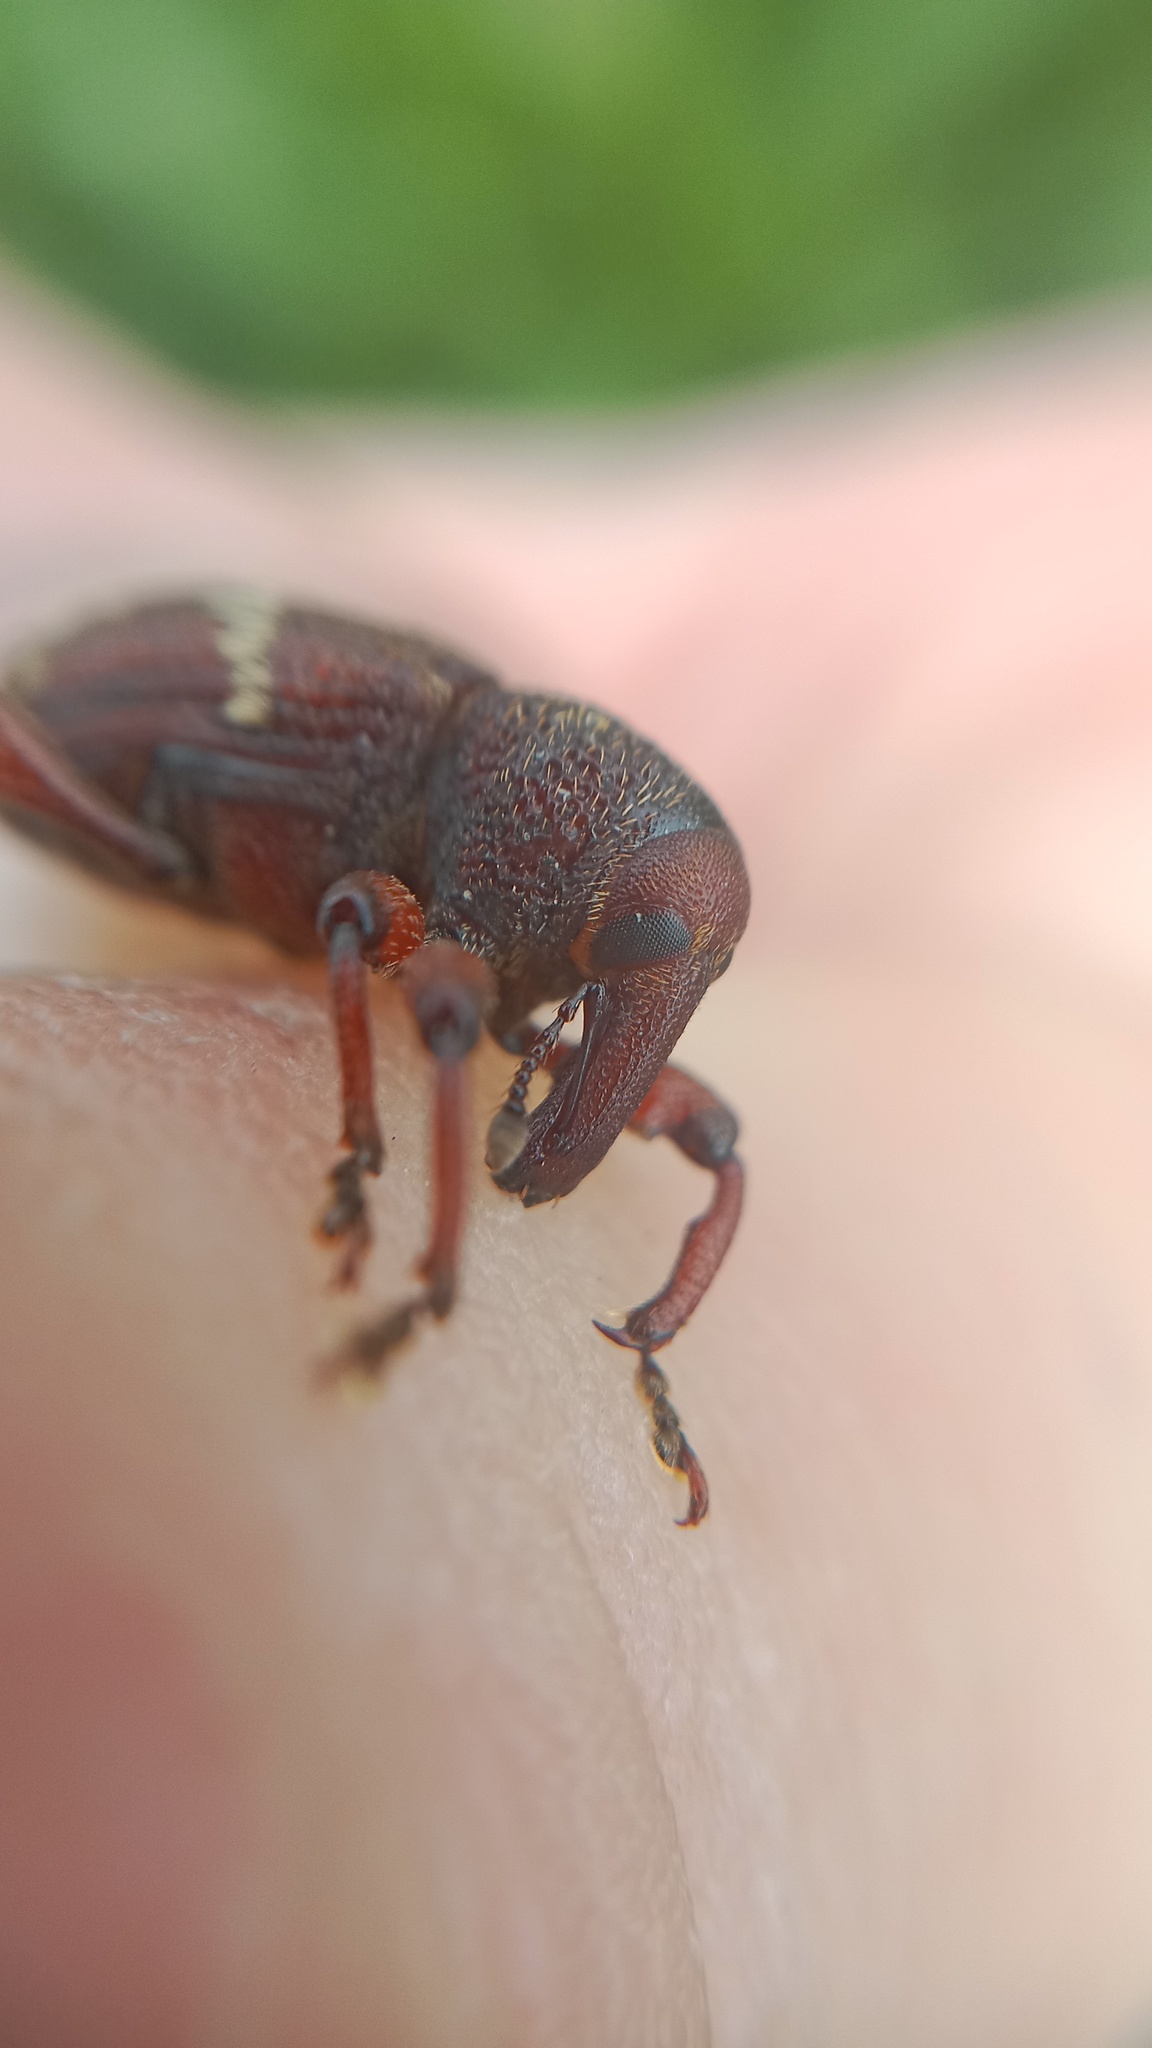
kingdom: Animalia
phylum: Arthropoda
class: Insecta
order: Coleoptera
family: Curculionidae
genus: Hylobius
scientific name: Hylobius transversovittatus
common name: Weevil
